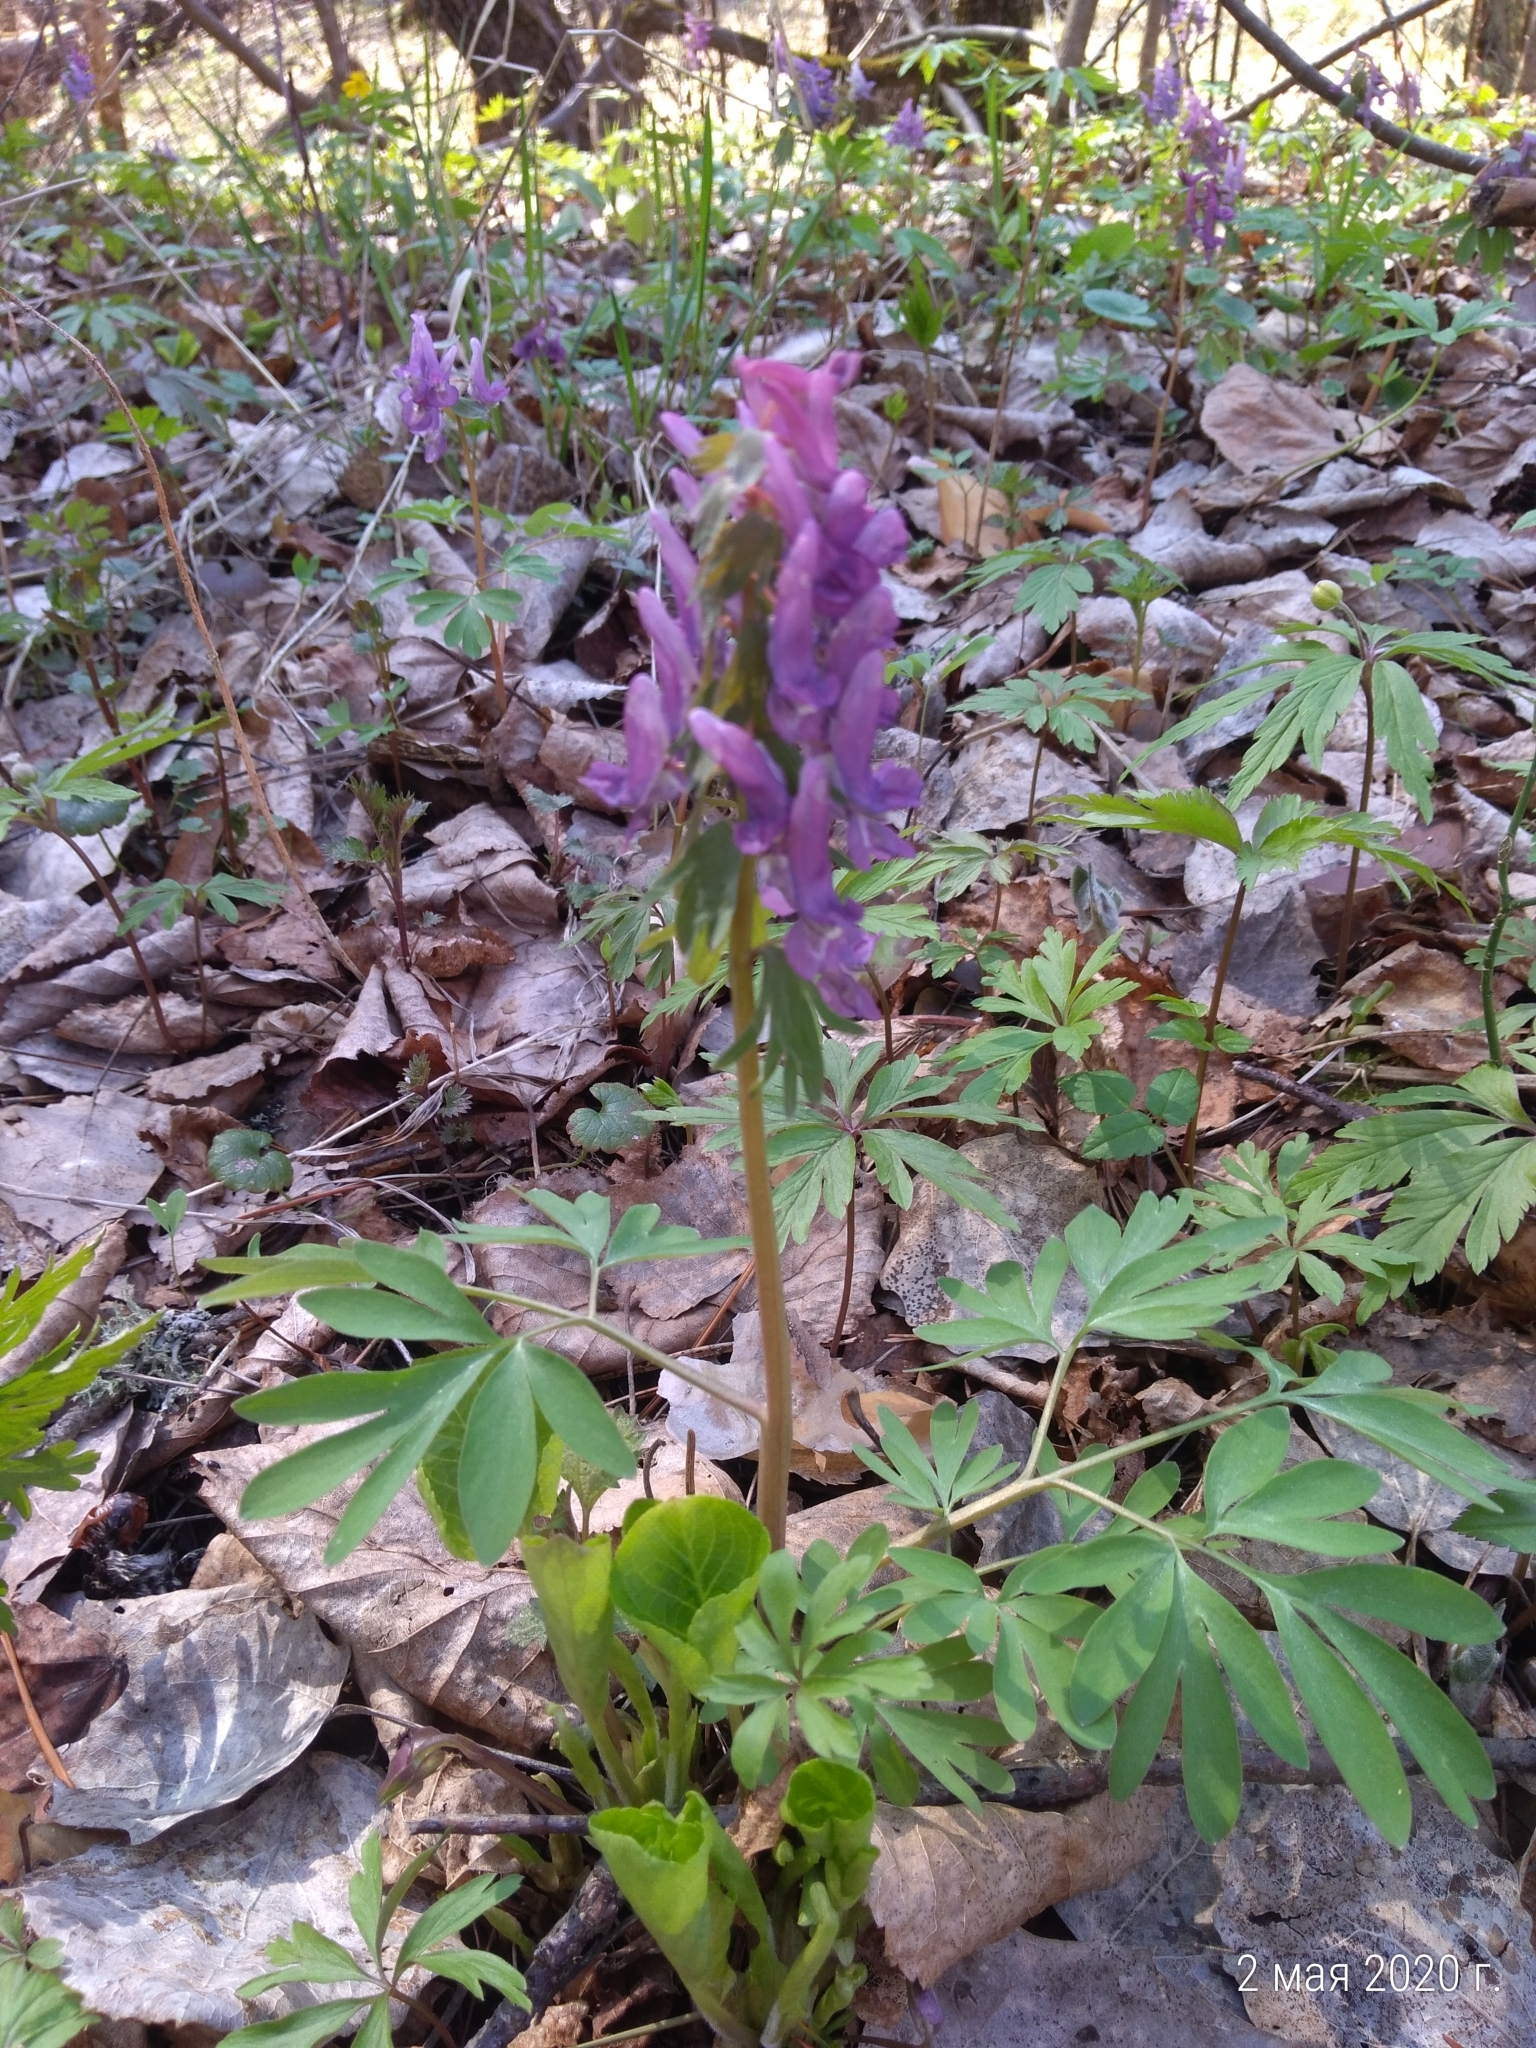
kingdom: Plantae
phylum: Tracheophyta
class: Magnoliopsida
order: Ranunculales
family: Papaveraceae
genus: Corydalis
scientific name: Corydalis solida
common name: Bird-in-a-bush
